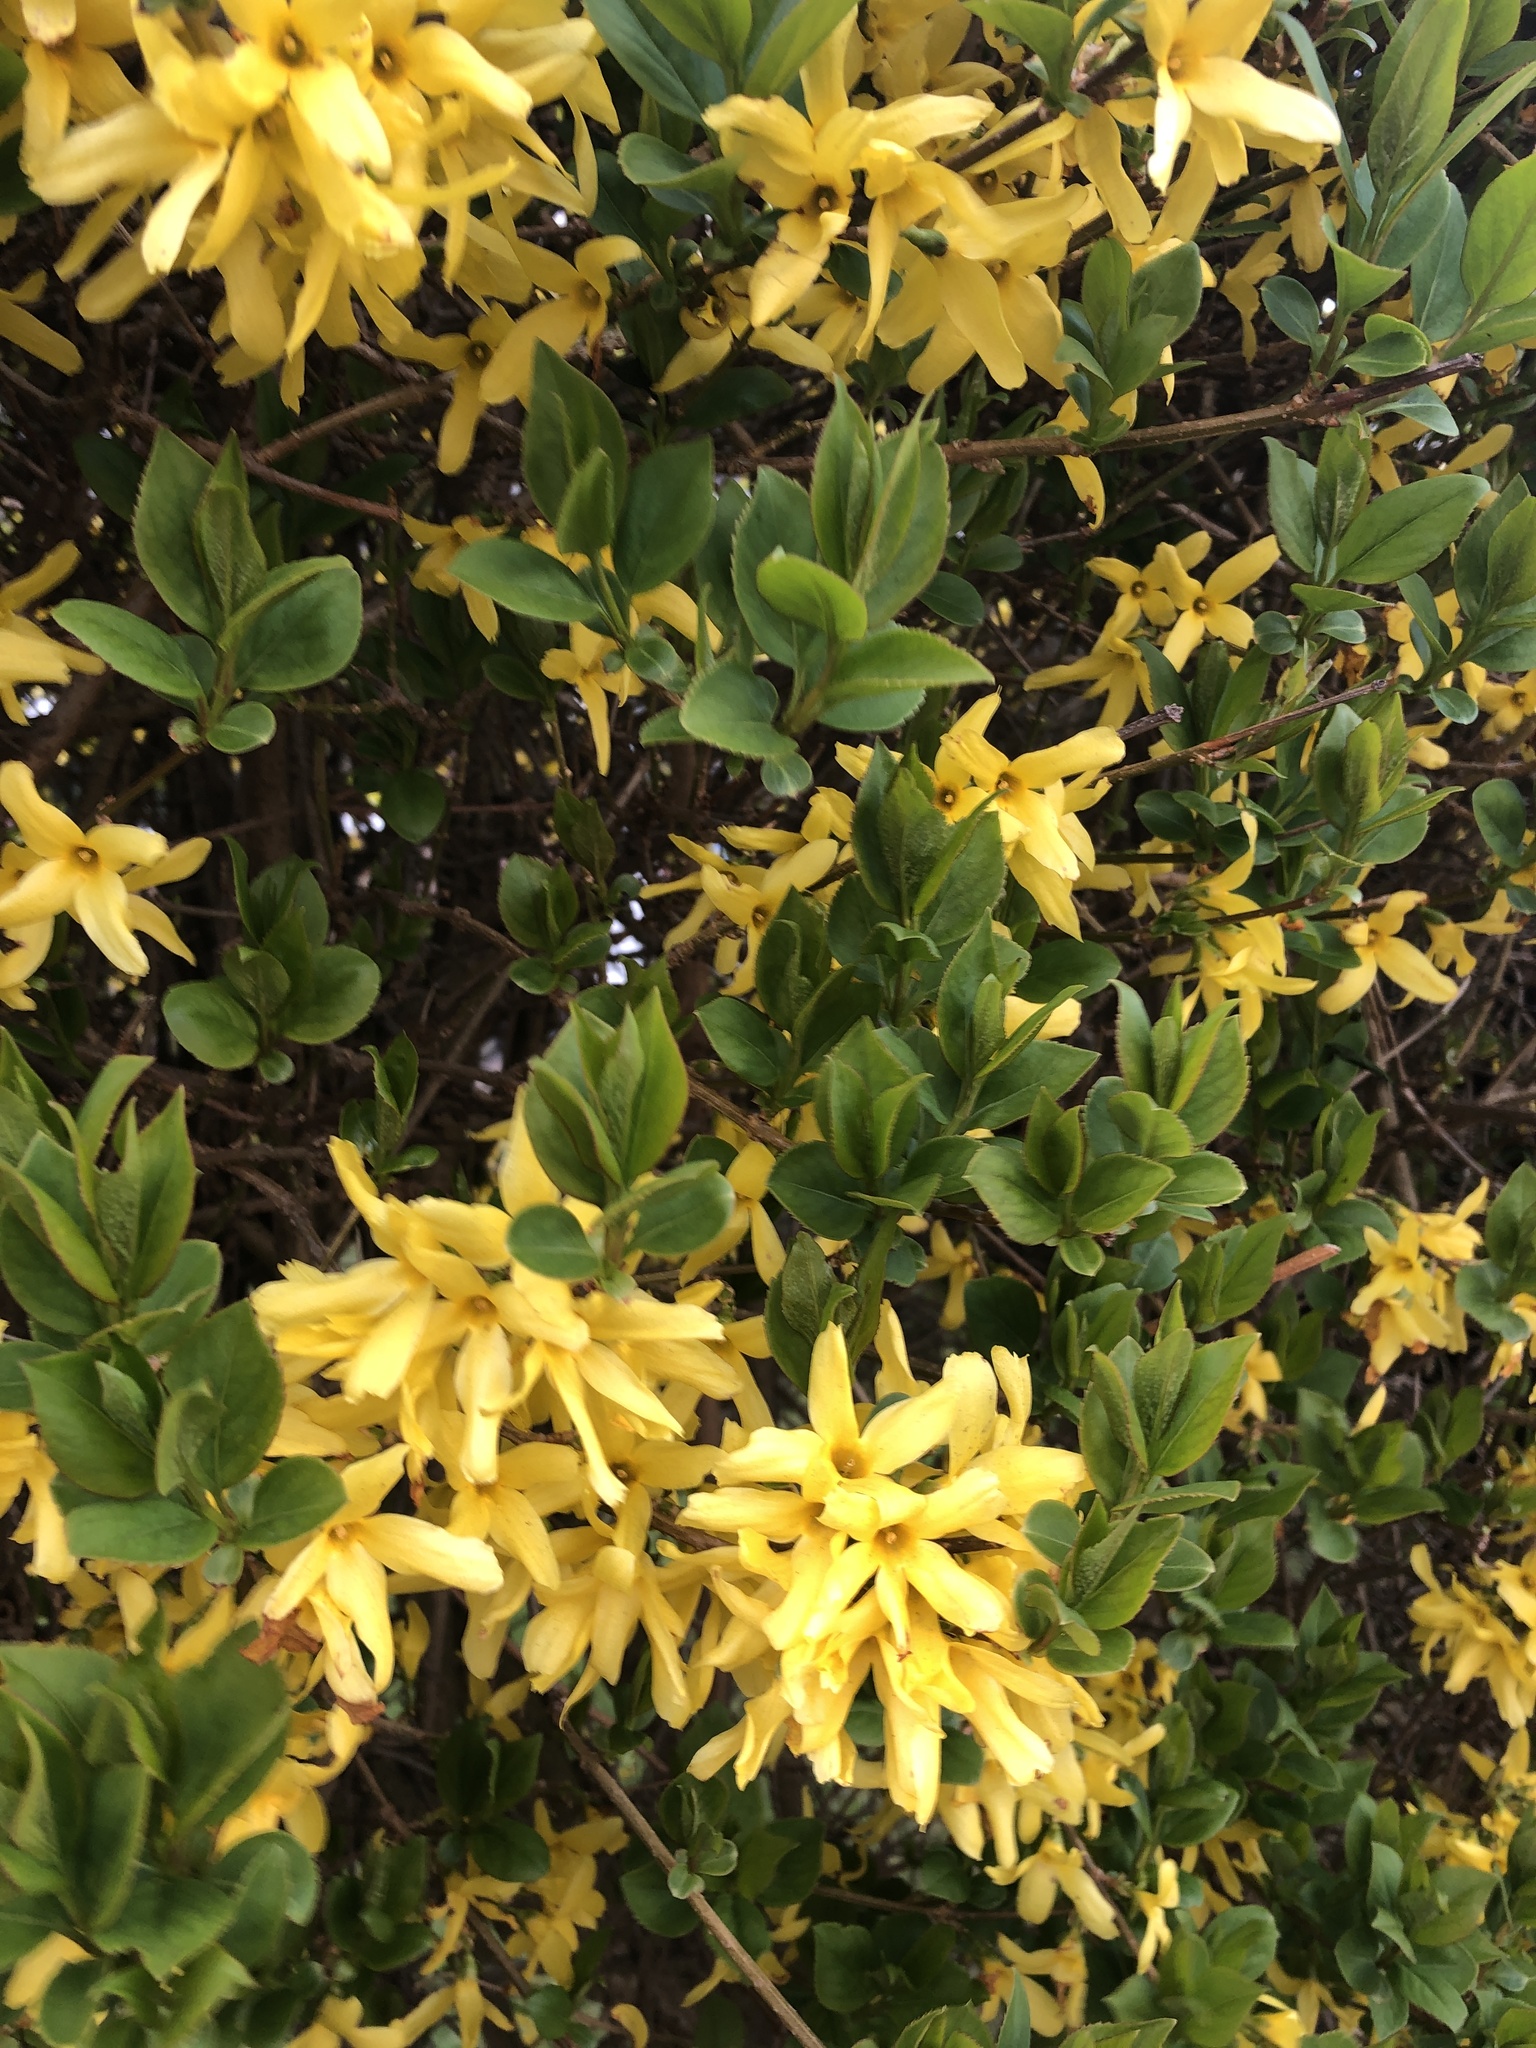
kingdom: Plantae
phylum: Tracheophyta
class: Magnoliopsida
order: Lamiales
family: Oleaceae
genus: Forsythia
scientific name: Forsythia intermedia
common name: Forsythia
